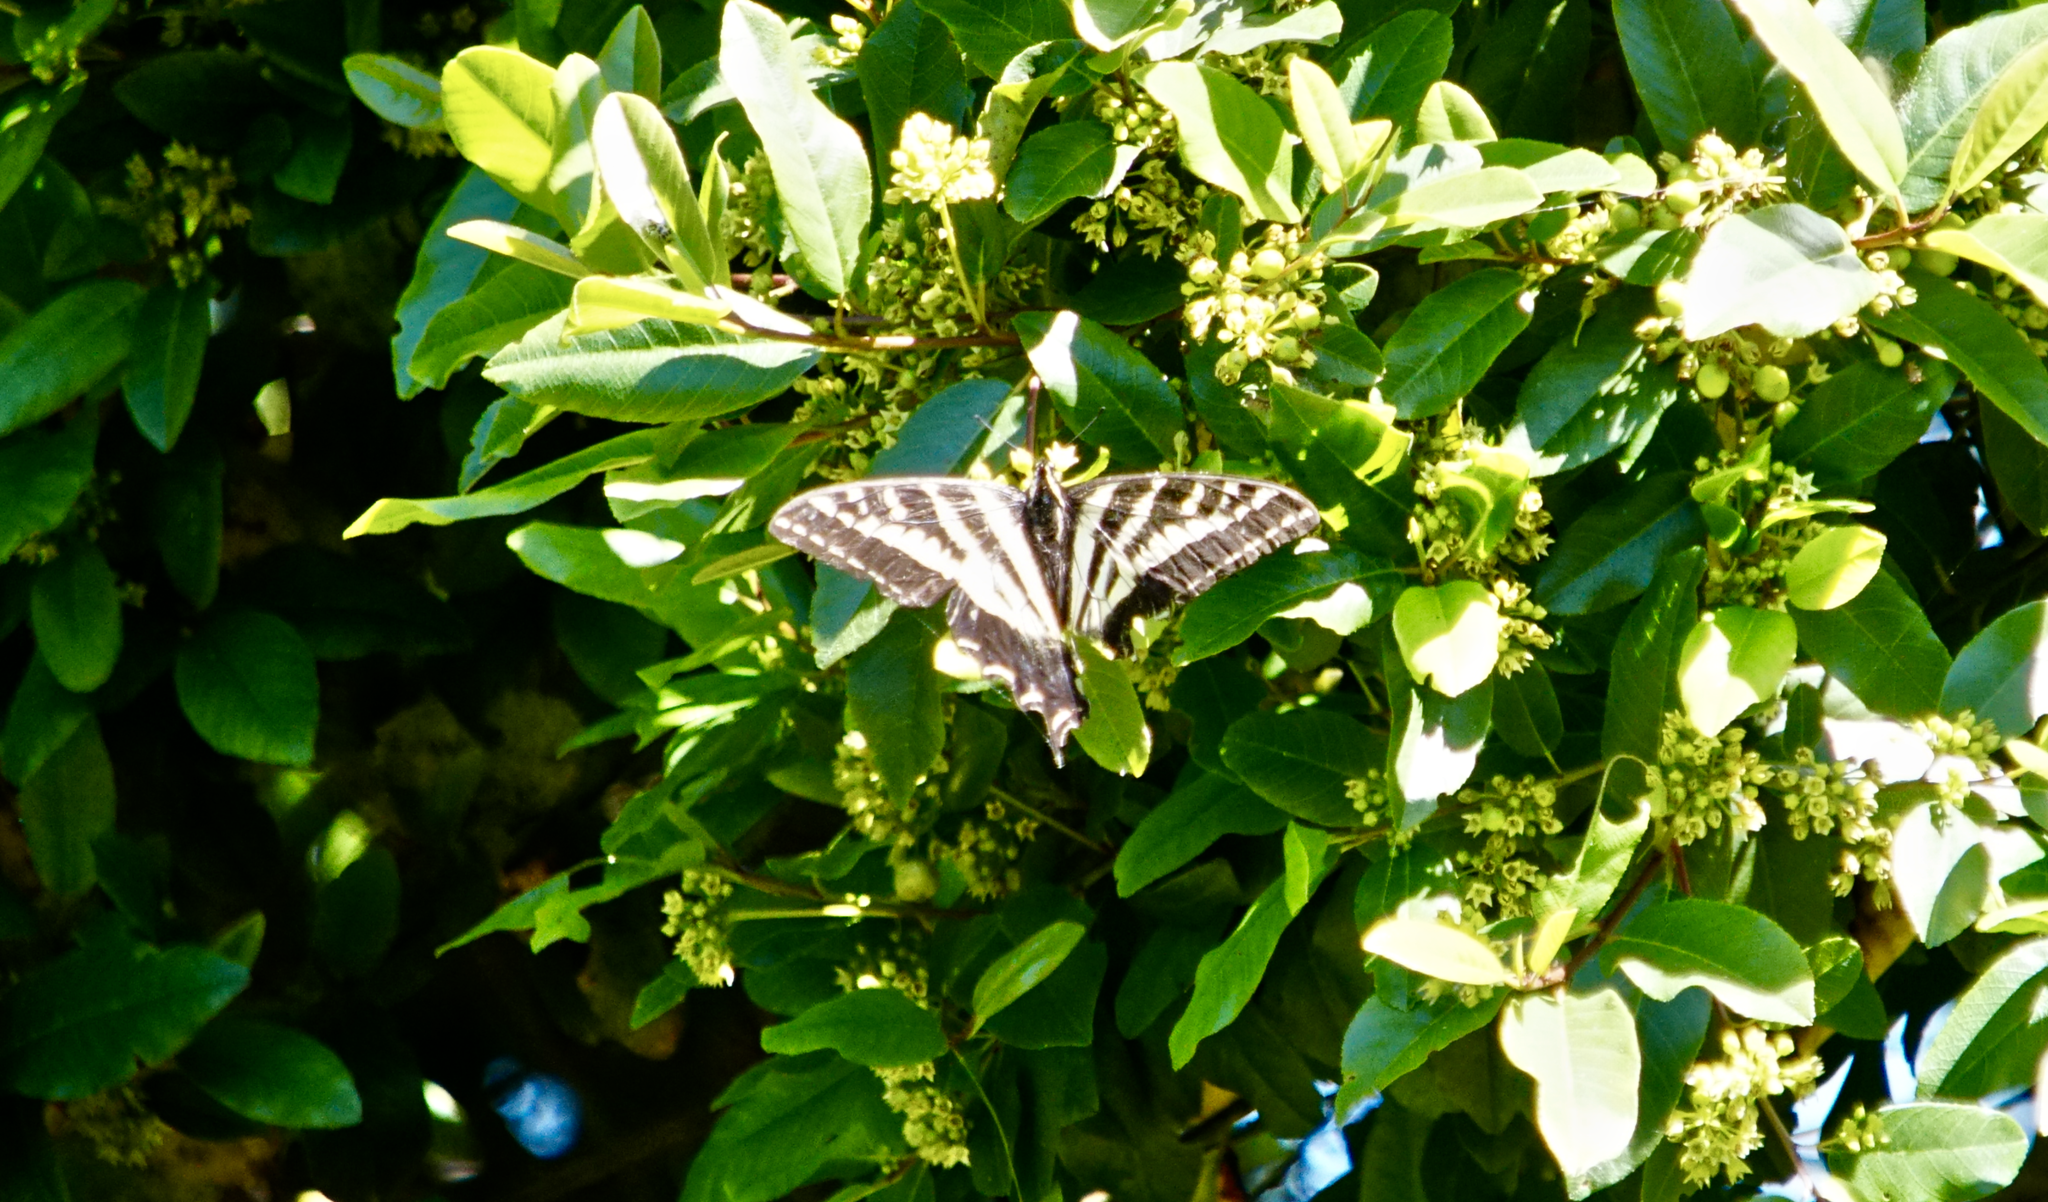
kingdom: Animalia
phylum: Arthropoda
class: Insecta
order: Lepidoptera
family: Papilionidae
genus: Papilio
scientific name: Papilio eurymedon
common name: Pale tiger swallowtail
